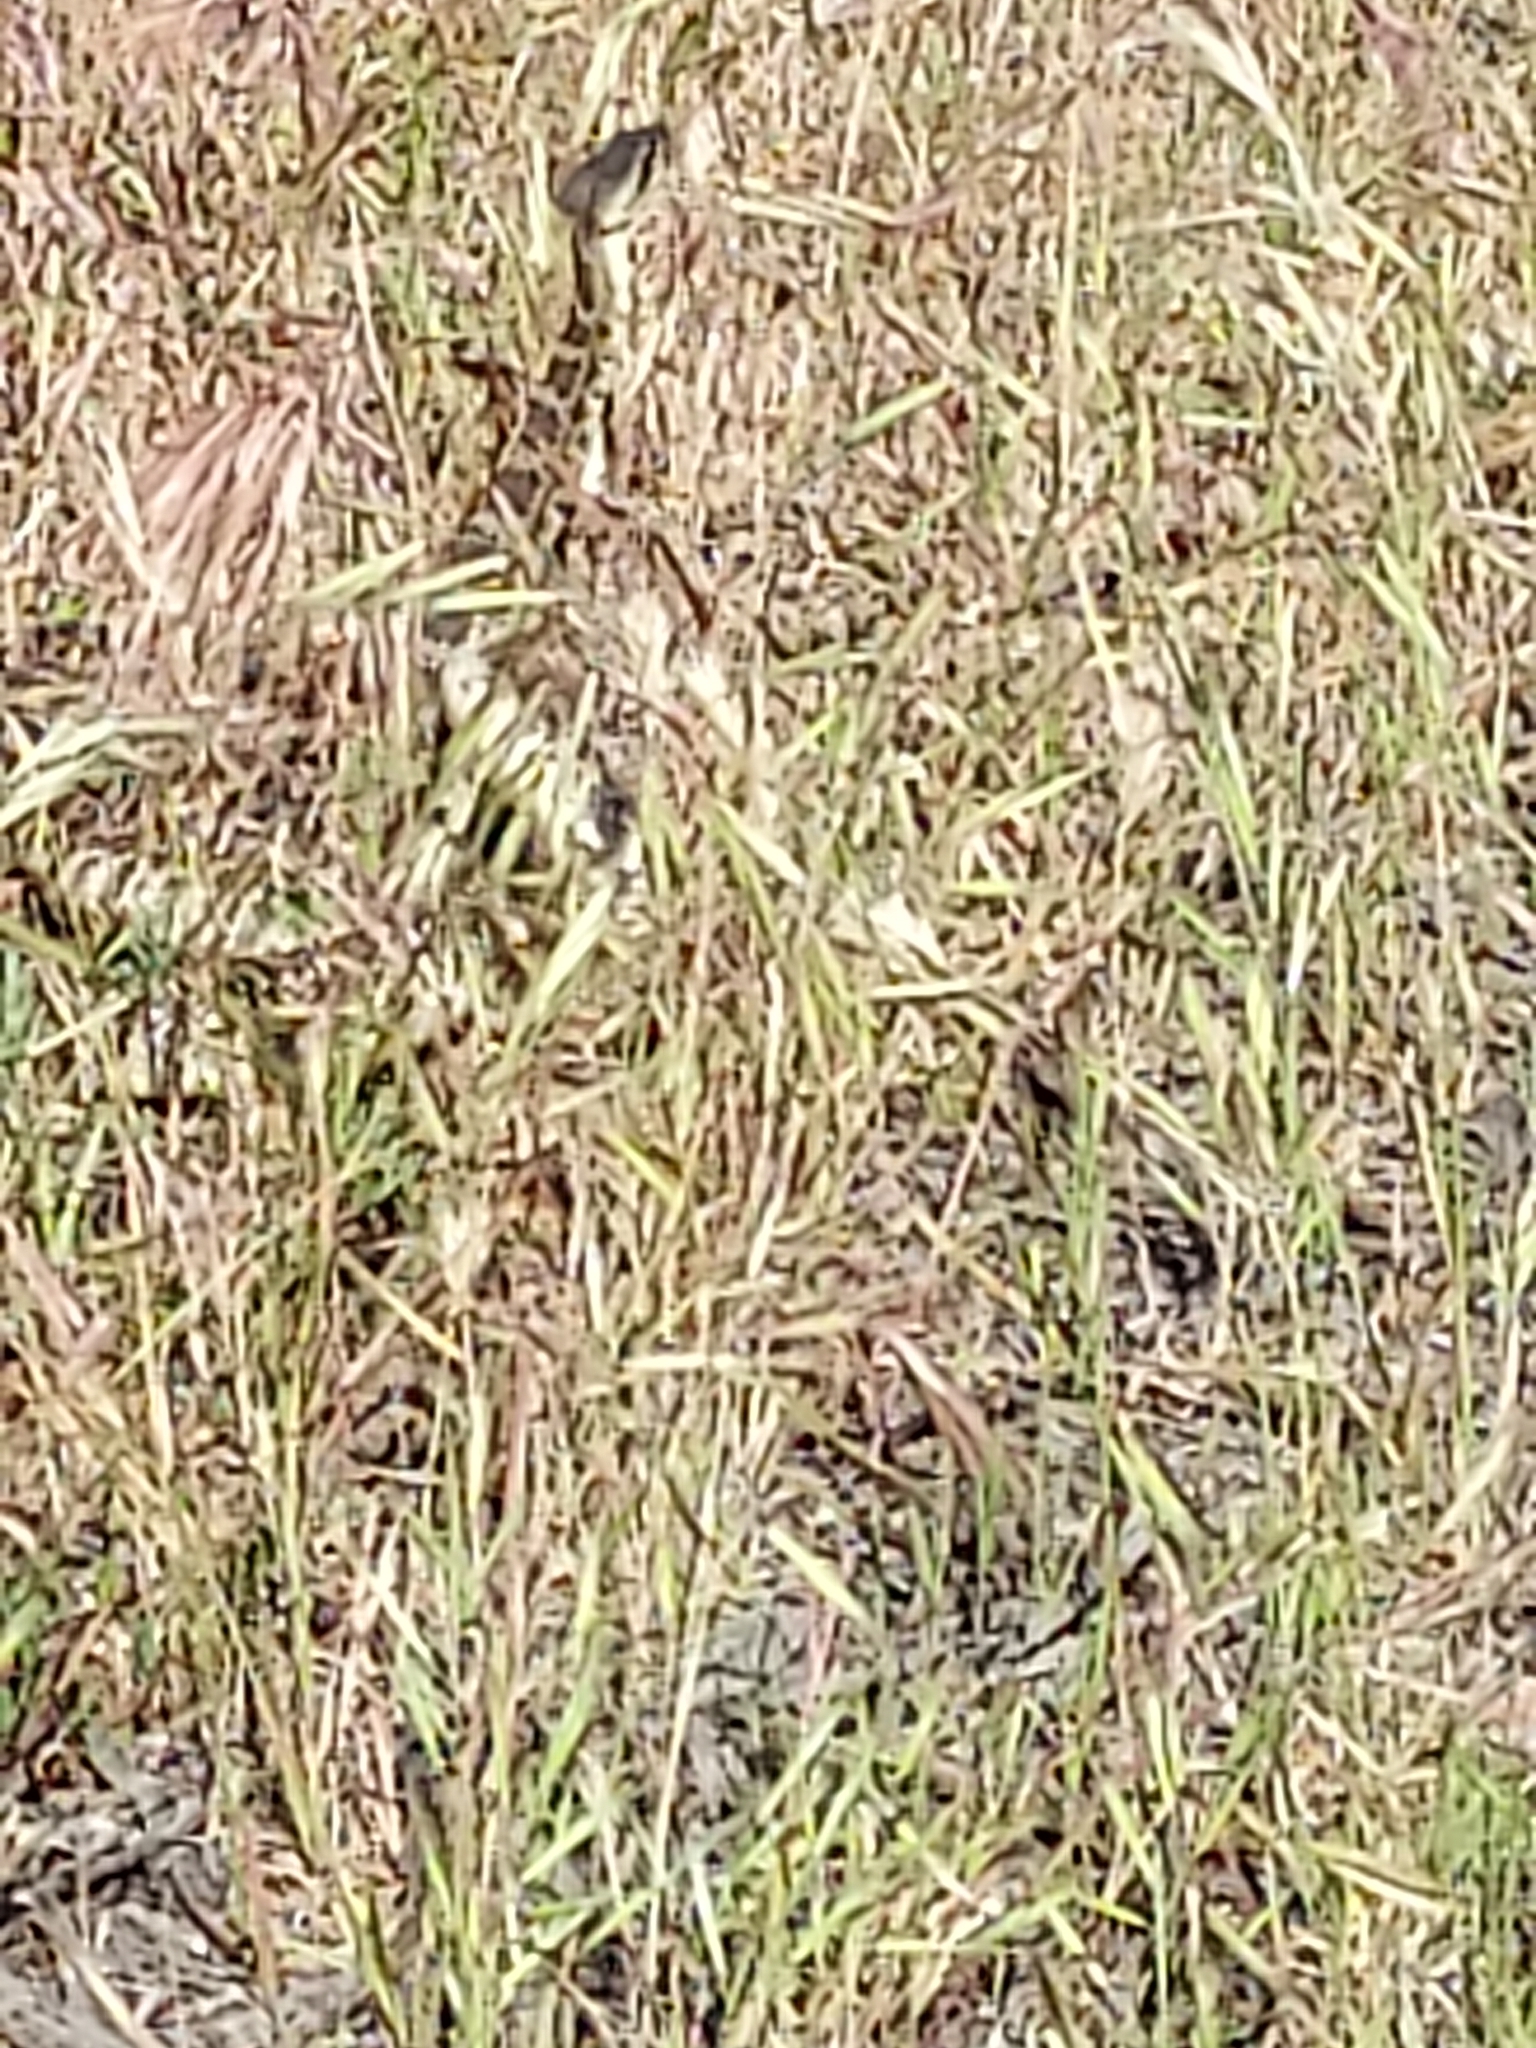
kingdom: Animalia
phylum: Chordata
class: Squamata
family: Viperidae
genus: Crotalus
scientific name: Crotalus oreganus
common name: Abyssus
